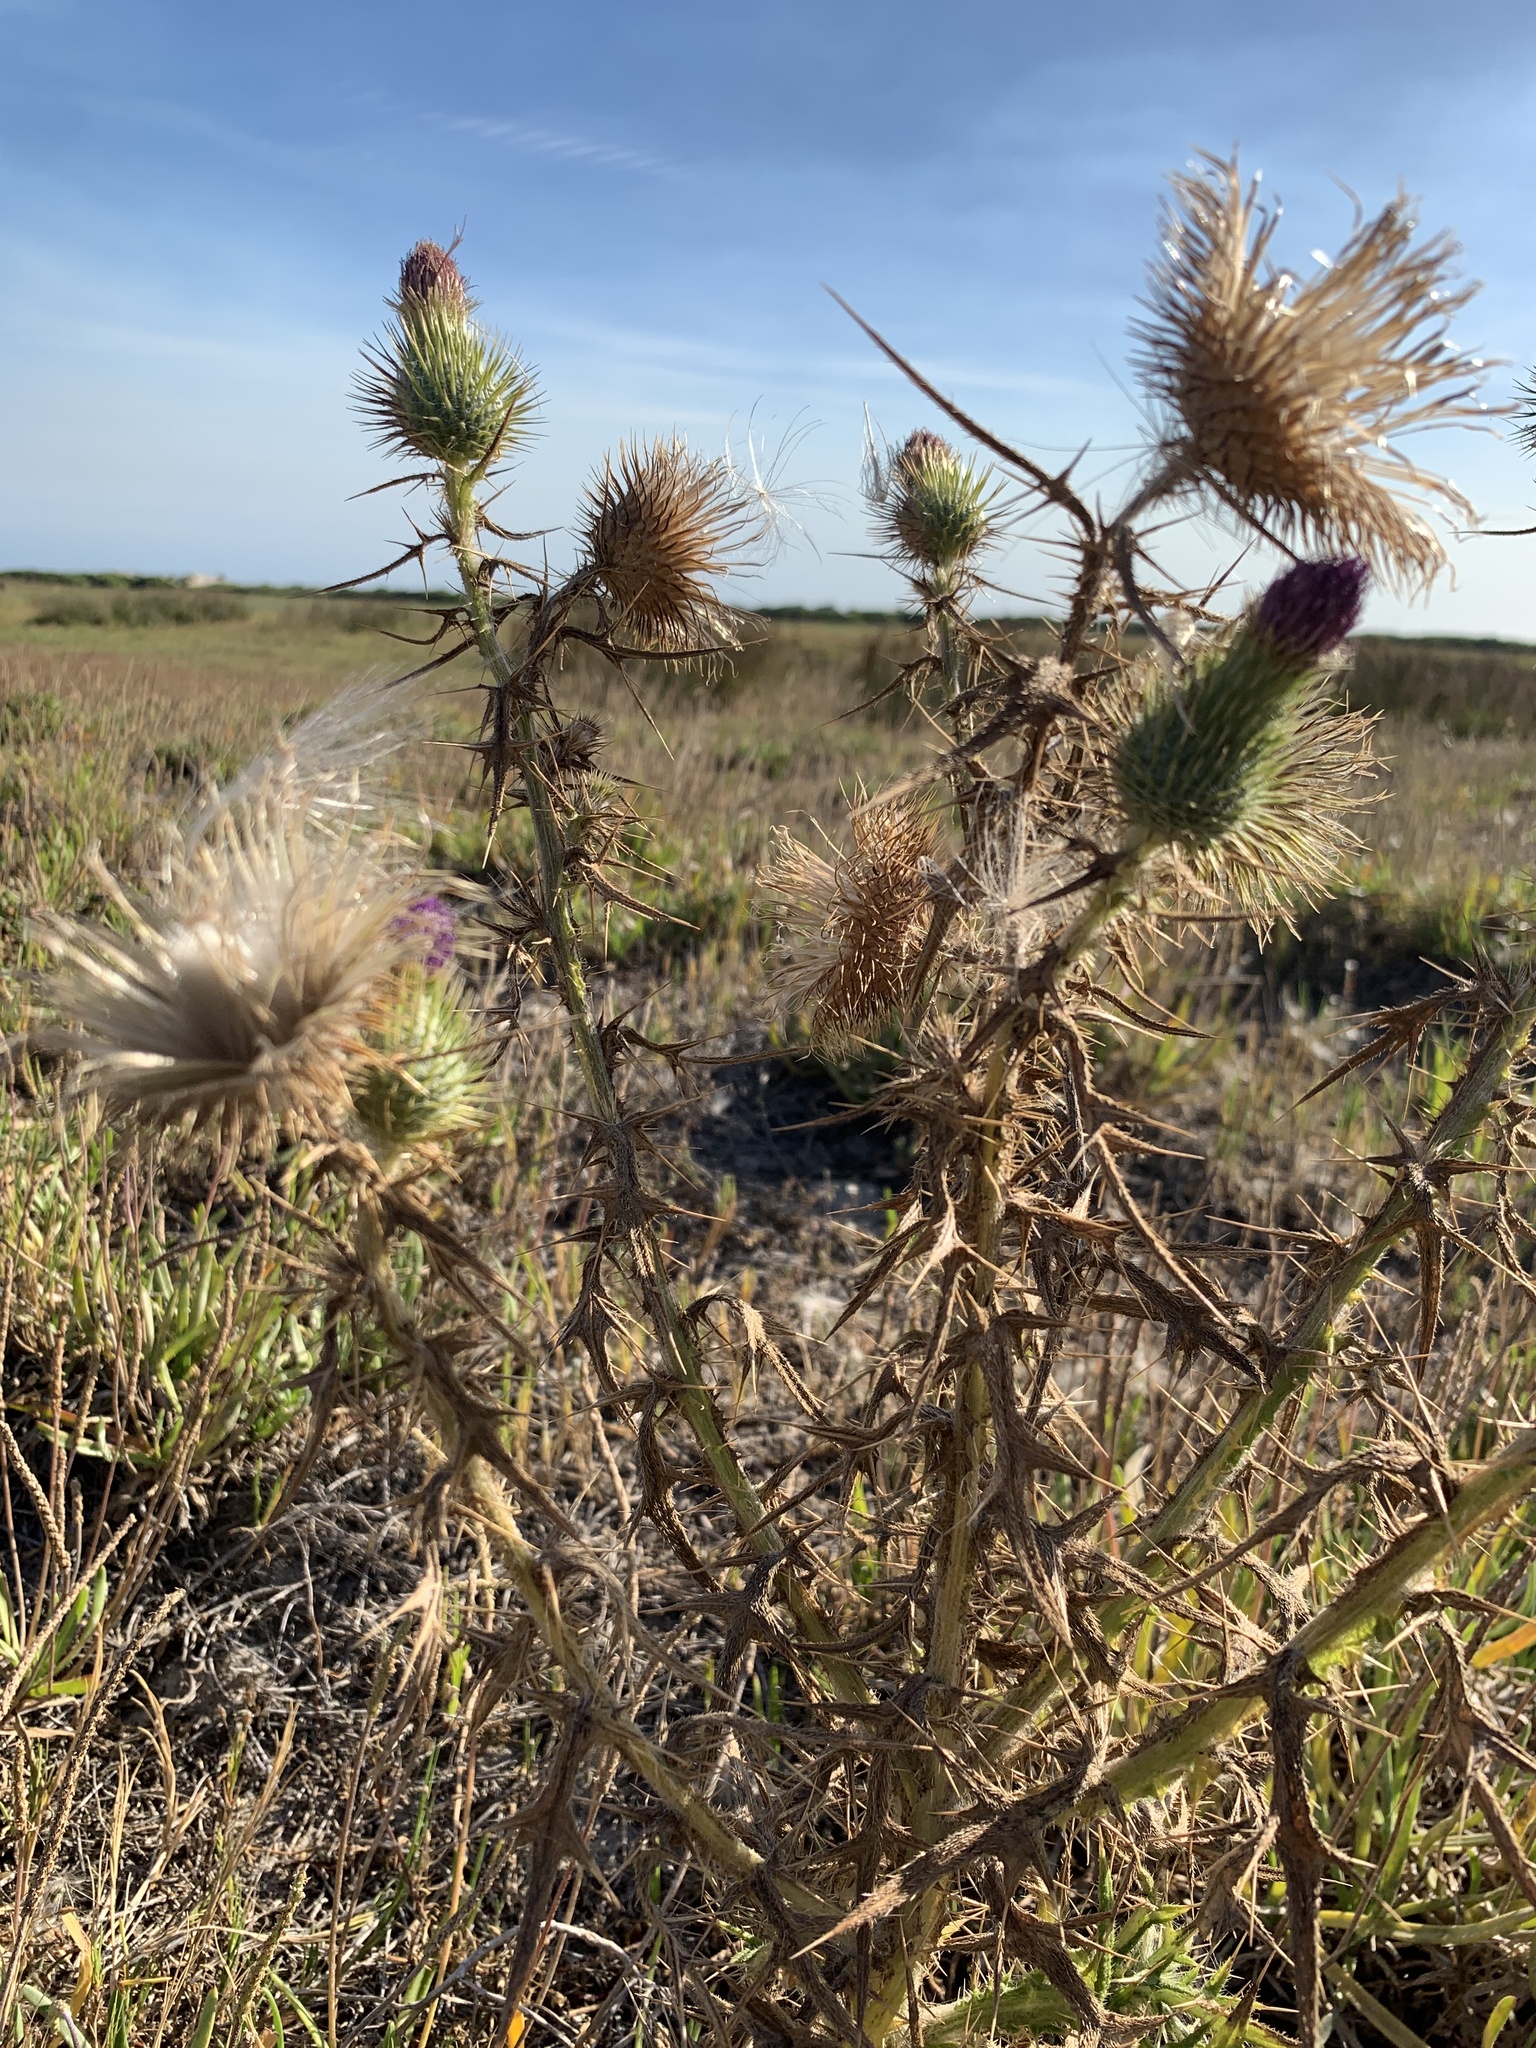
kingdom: Plantae
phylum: Tracheophyta
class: Magnoliopsida
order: Asterales
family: Asteraceae
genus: Cirsium
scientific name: Cirsium vulgare
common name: Bull thistle
